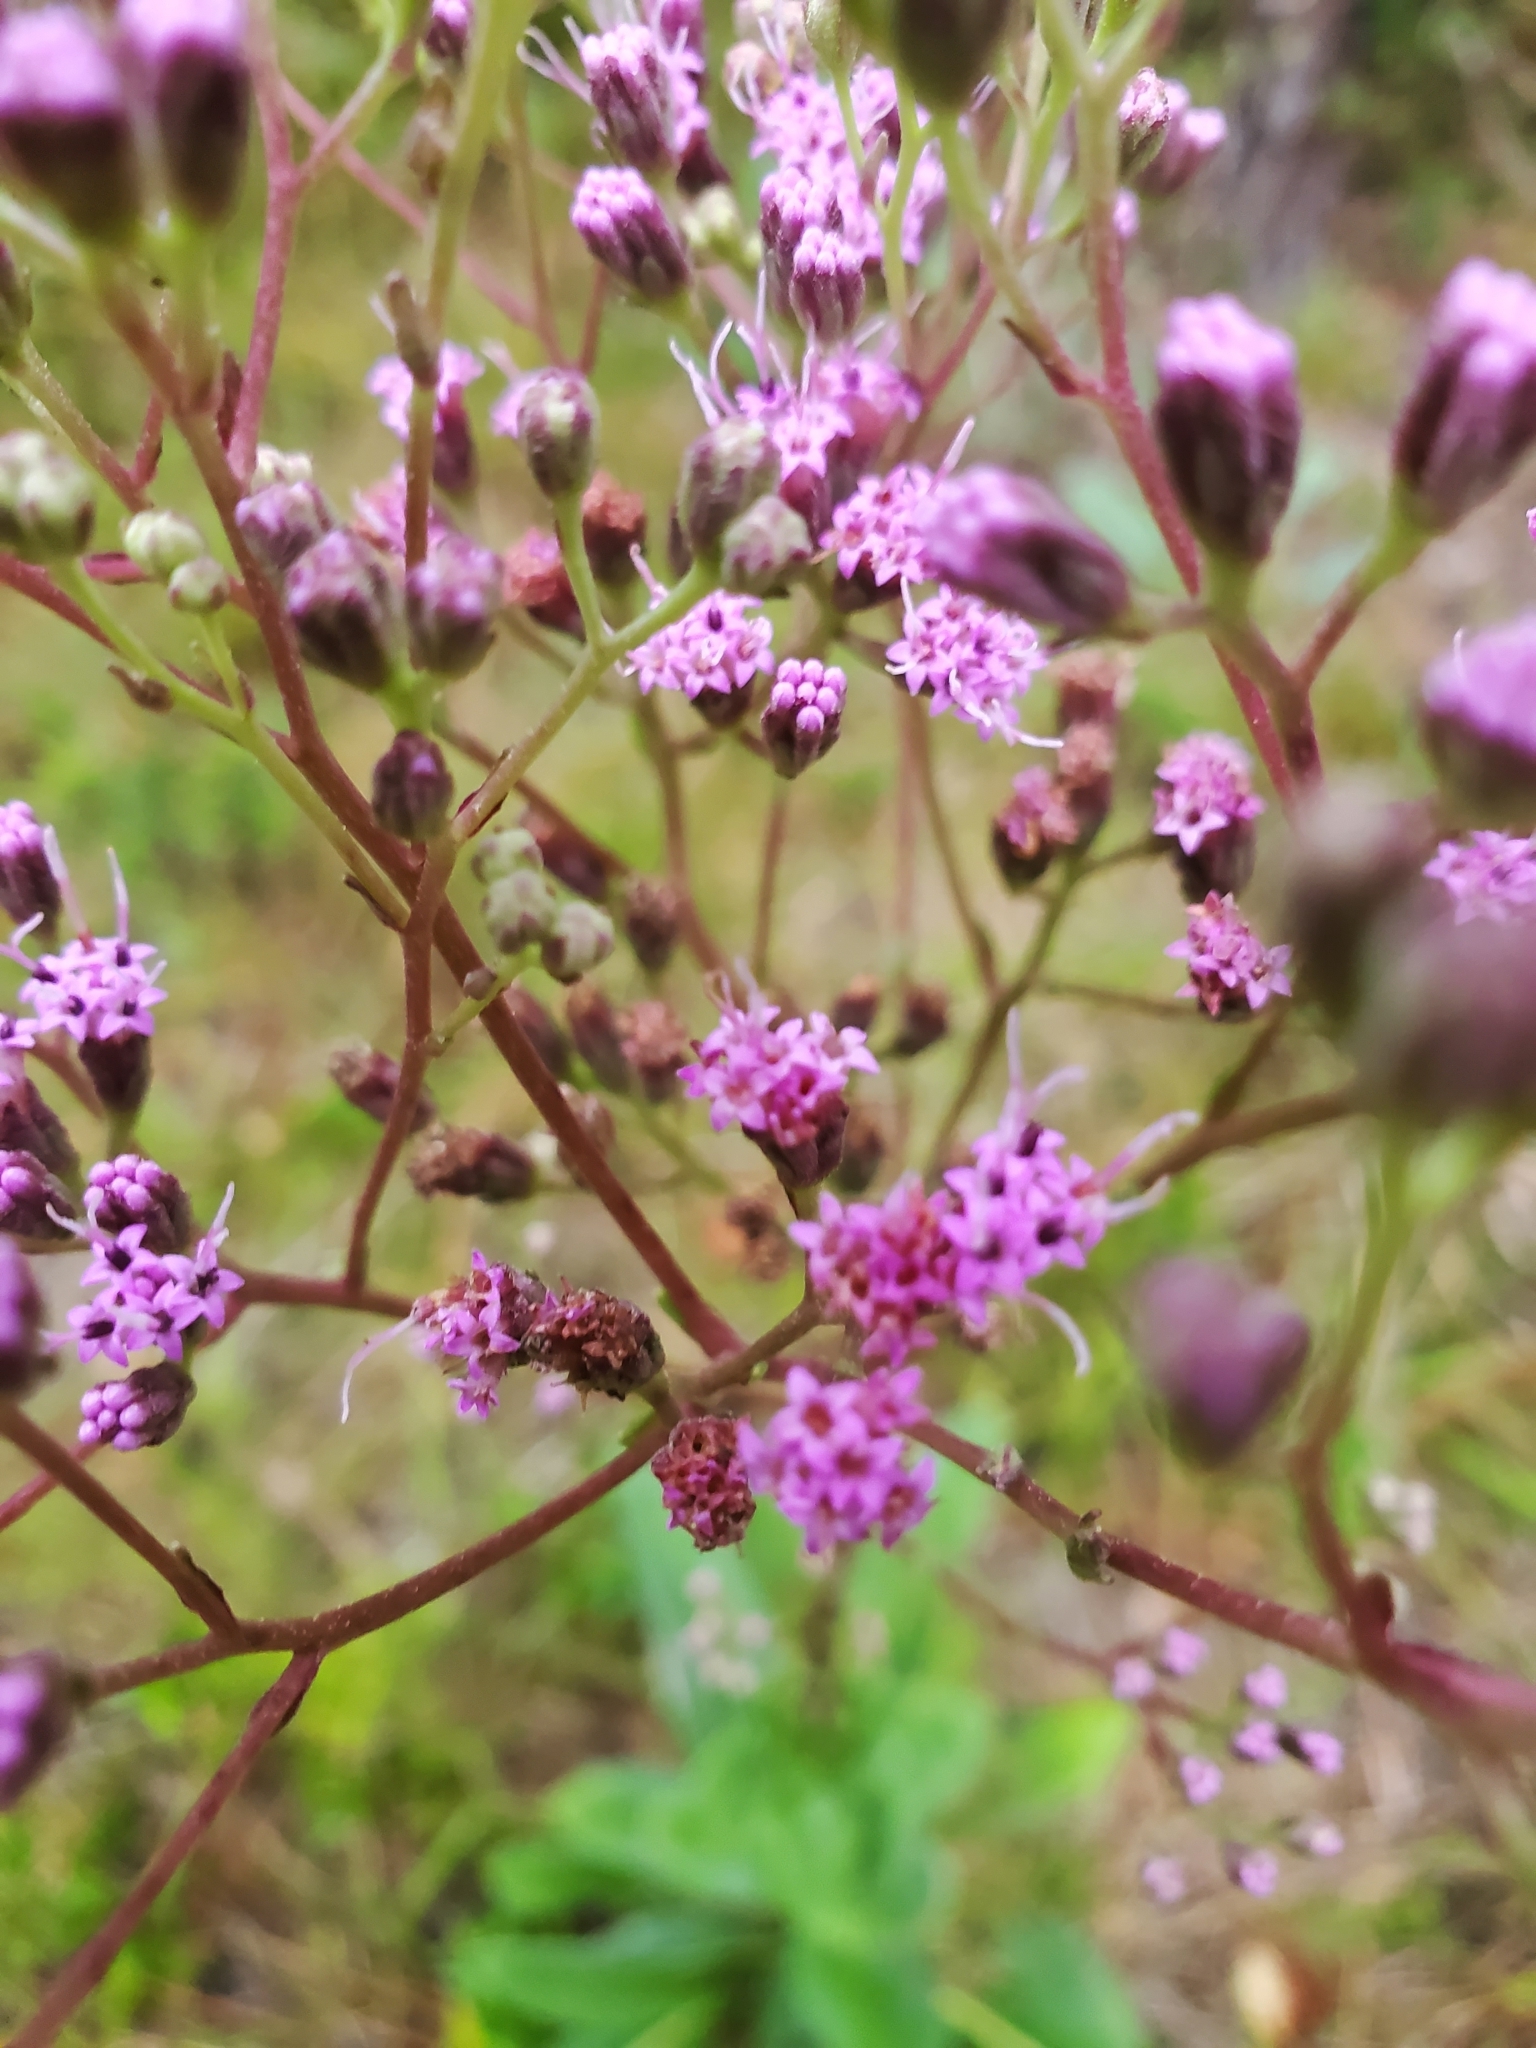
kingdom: Plantae
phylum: Tracheophyta
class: Magnoliopsida
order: Asterales
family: Asteraceae
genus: Carphephorus
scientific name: Carphephorus odoratissimus
